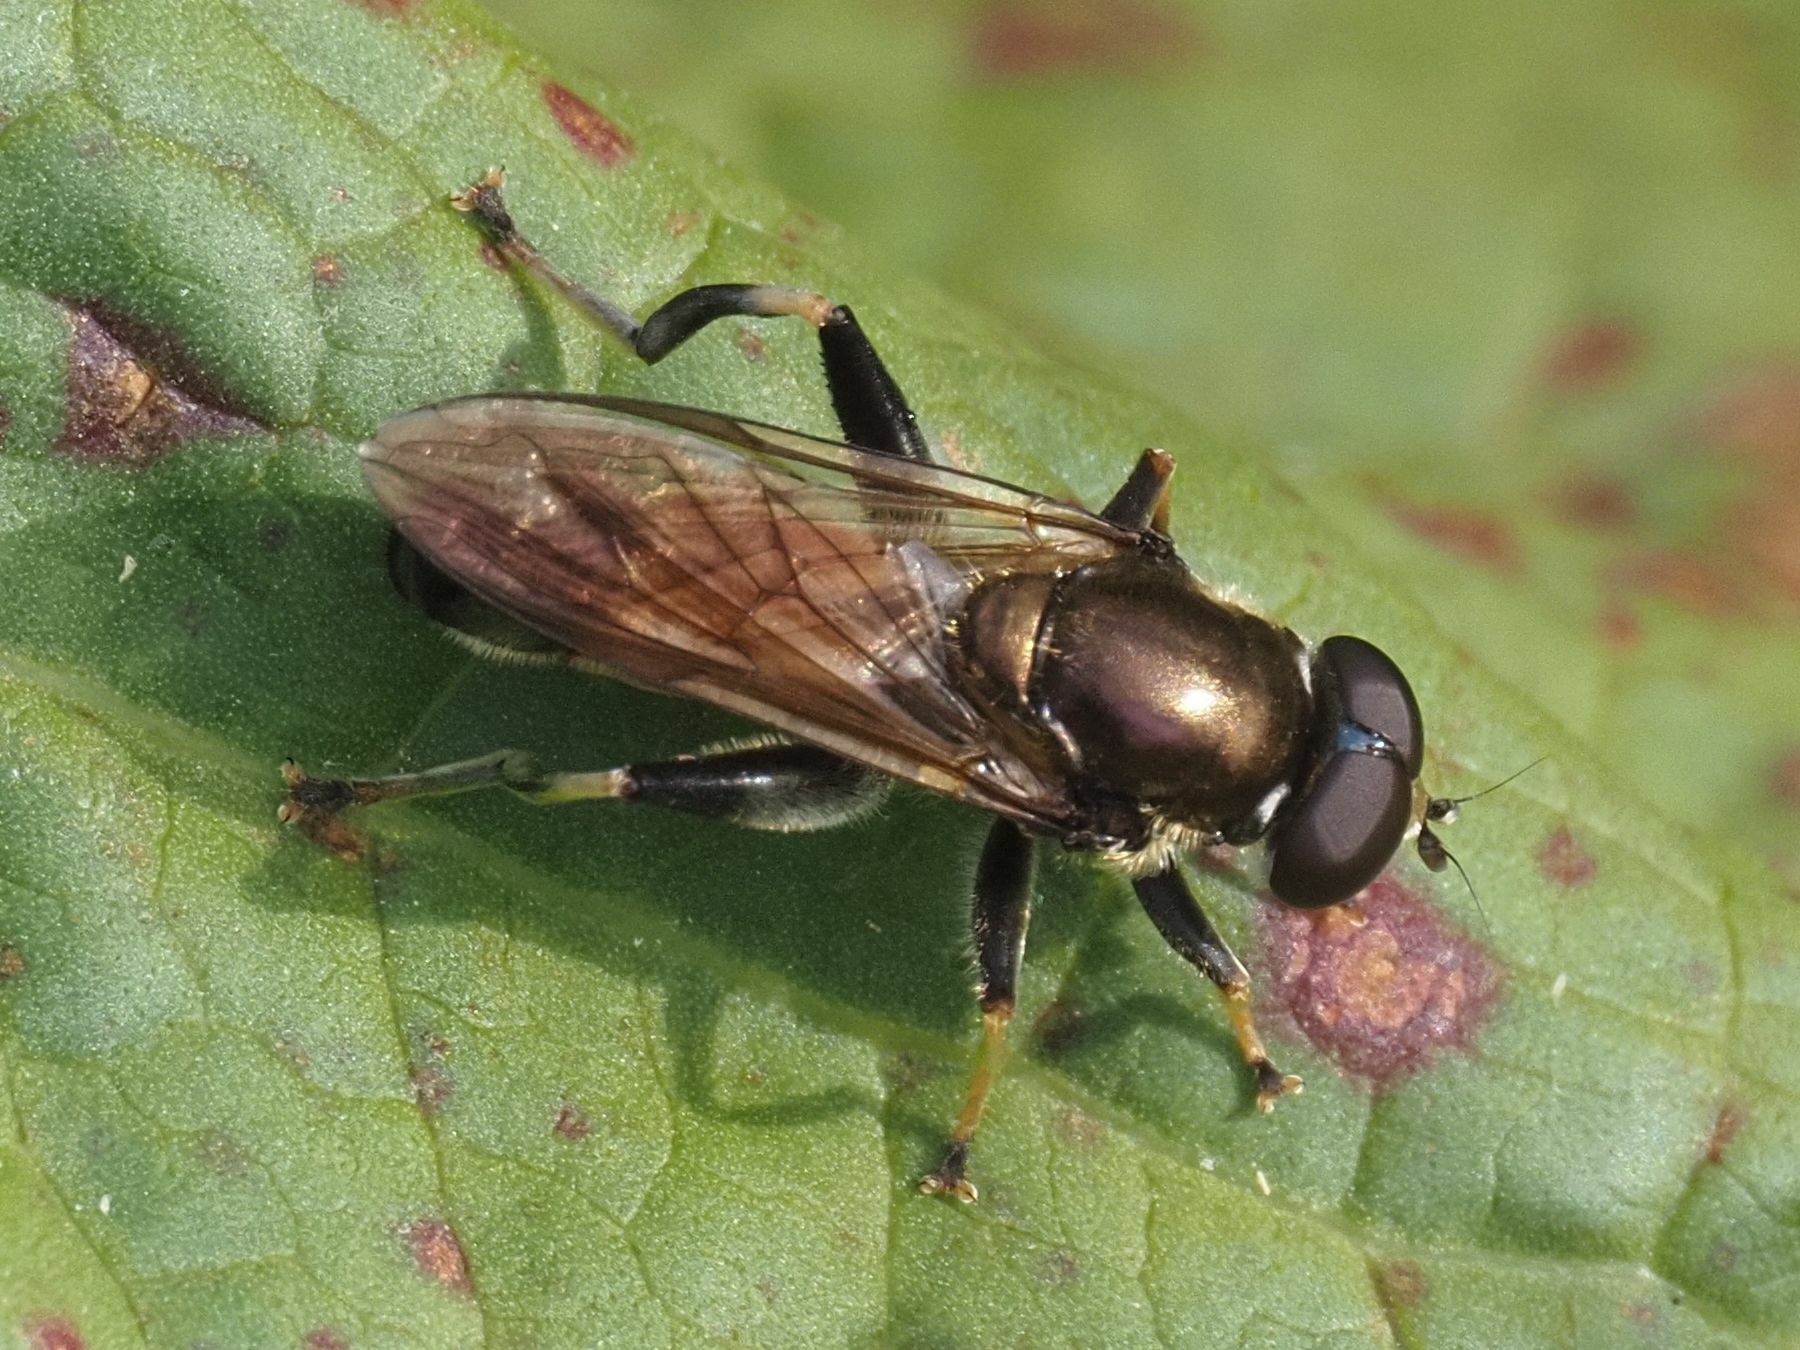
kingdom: Animalia
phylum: Arthropoda
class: Insecta
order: Diptera
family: Syrphidae
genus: Xylota
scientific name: Xylota segnis
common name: Brown-toed forest fly
